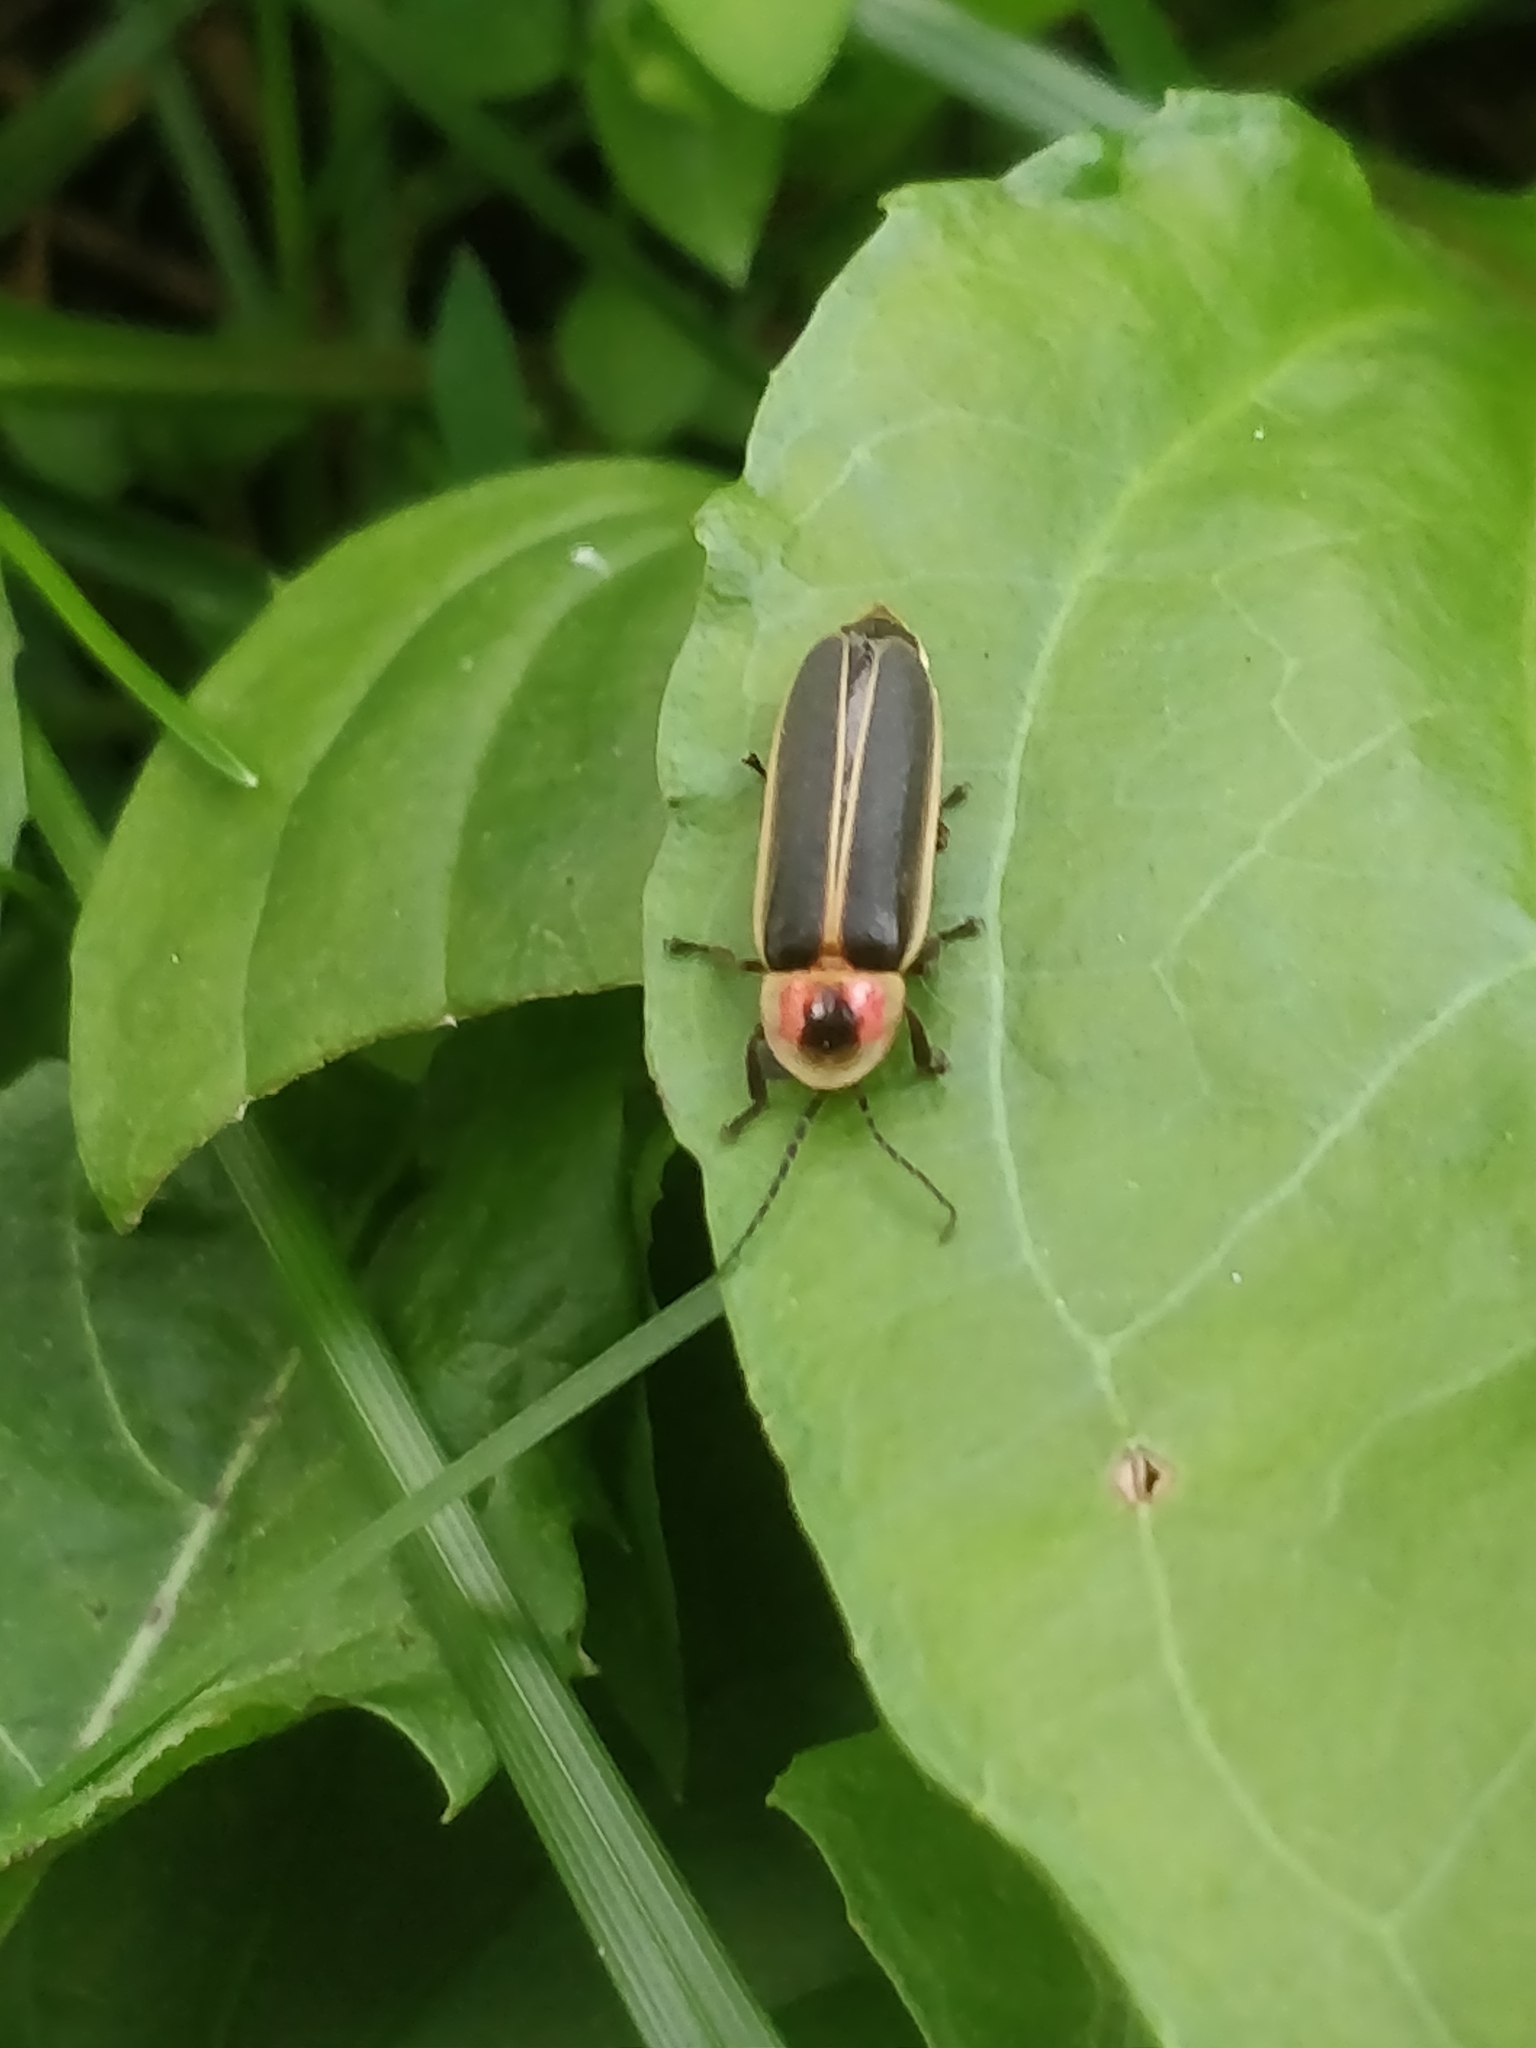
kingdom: Animalia
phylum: Arthropoda
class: Insecta
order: Coleoptera
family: Lampyridae
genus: Photinus
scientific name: Photinus pyralis
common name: Big dipper firefly
